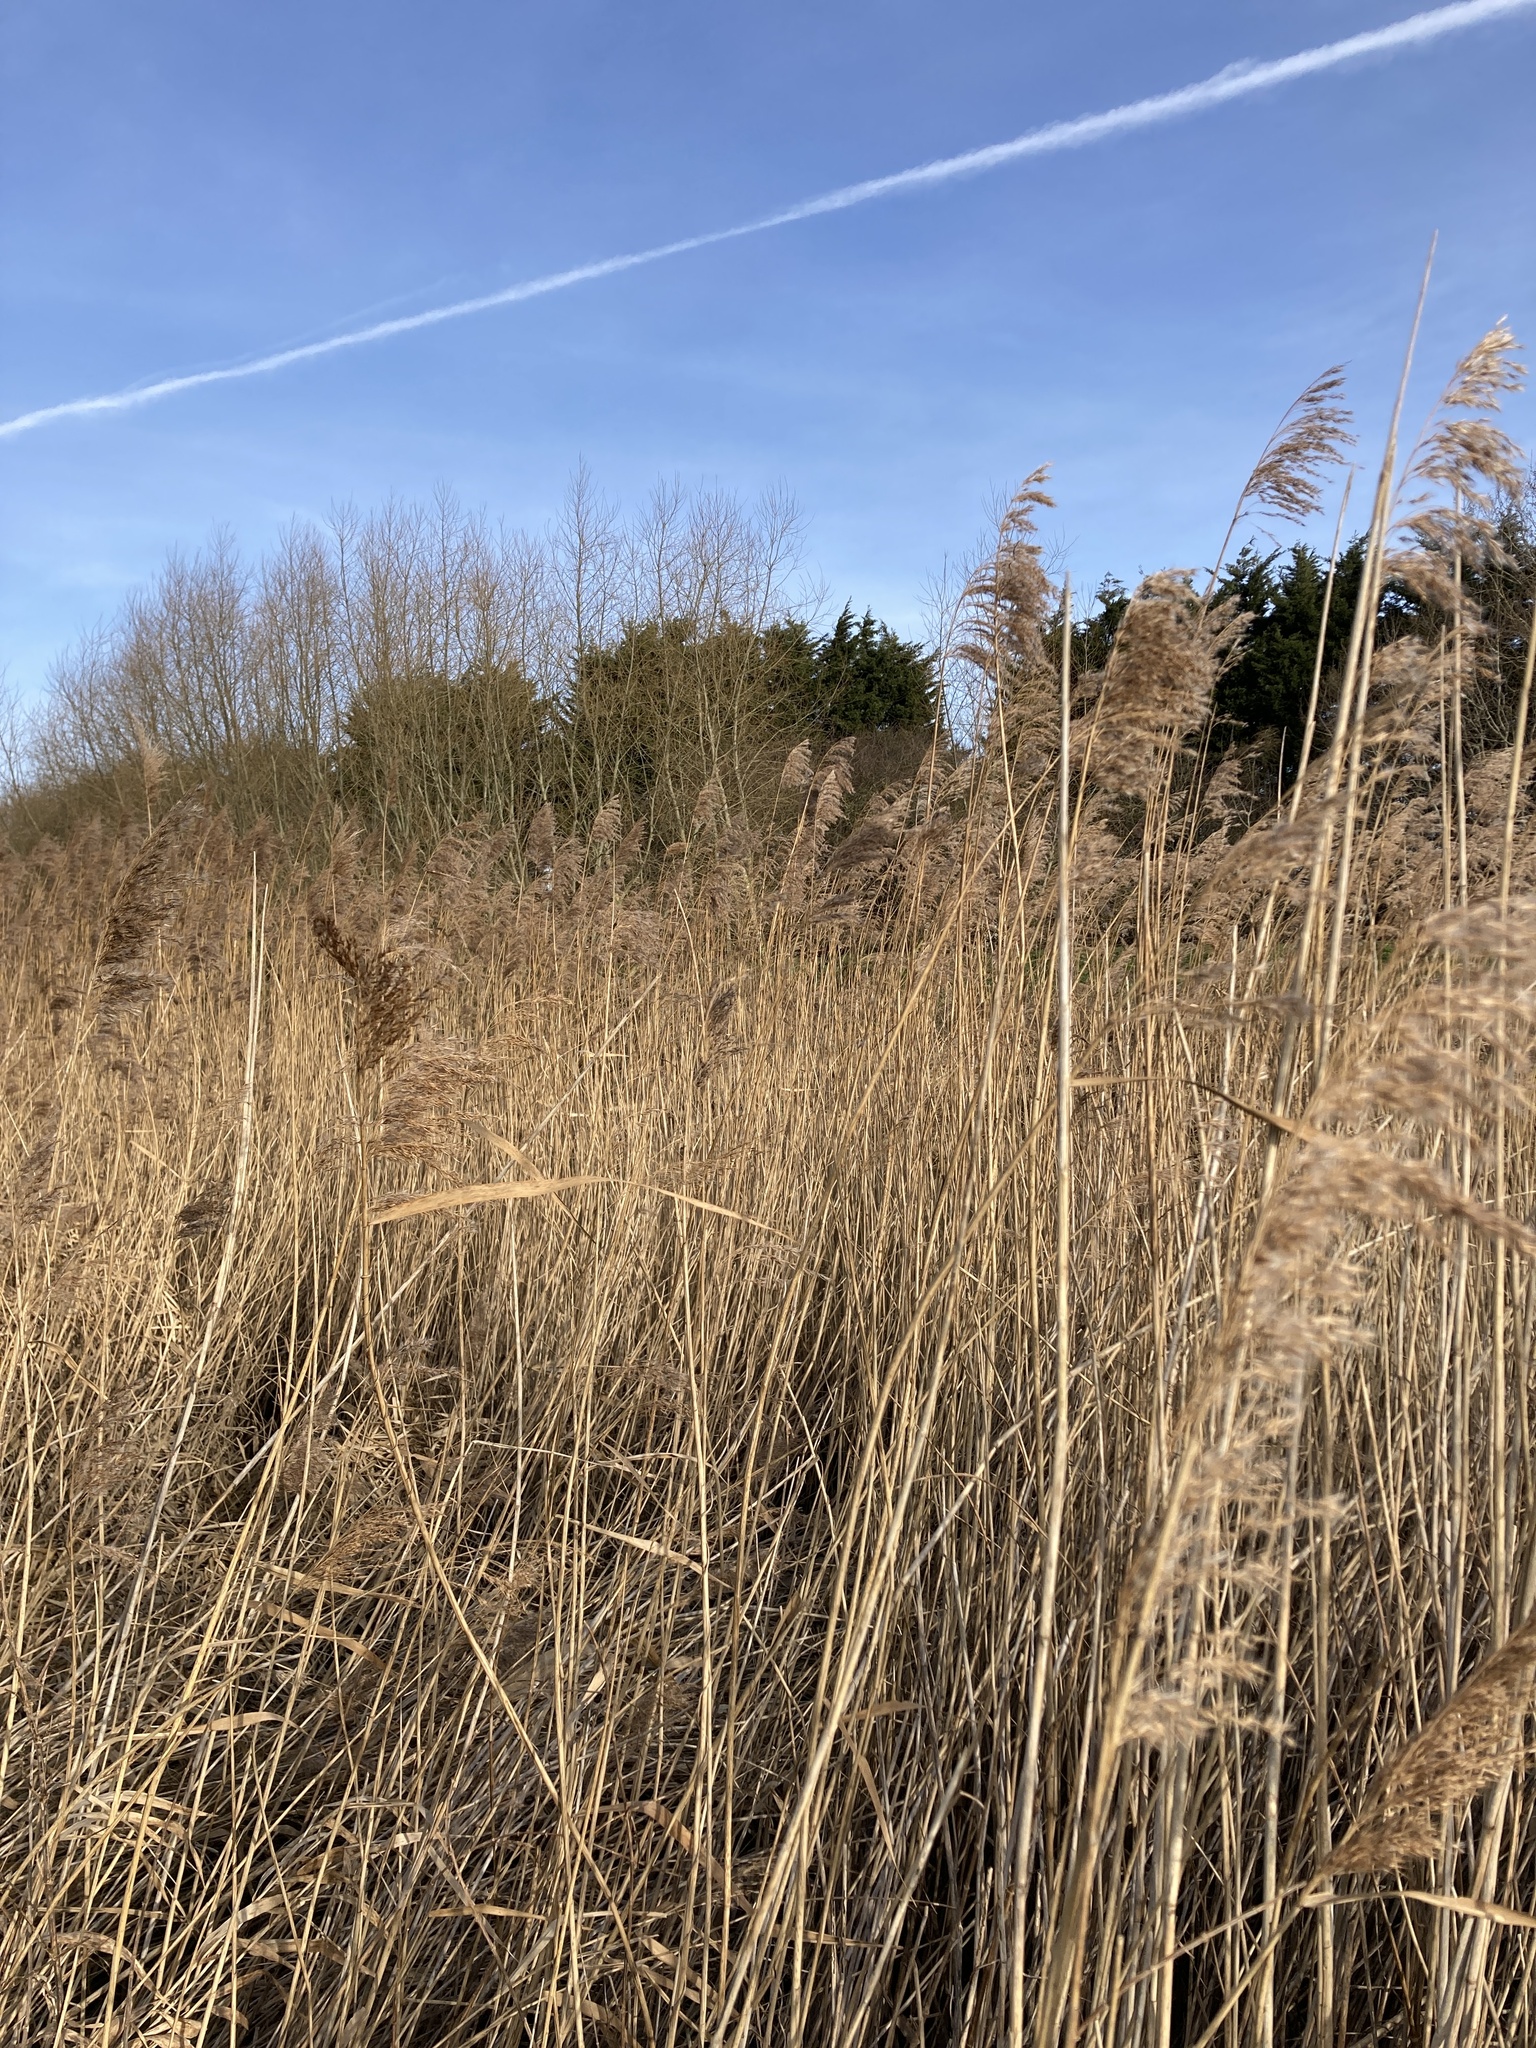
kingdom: Plantae
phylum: Tracheophyta
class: Liliopsida
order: Poales
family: Poaceae
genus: Phragmites
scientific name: Phragmites australis
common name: Common reed
